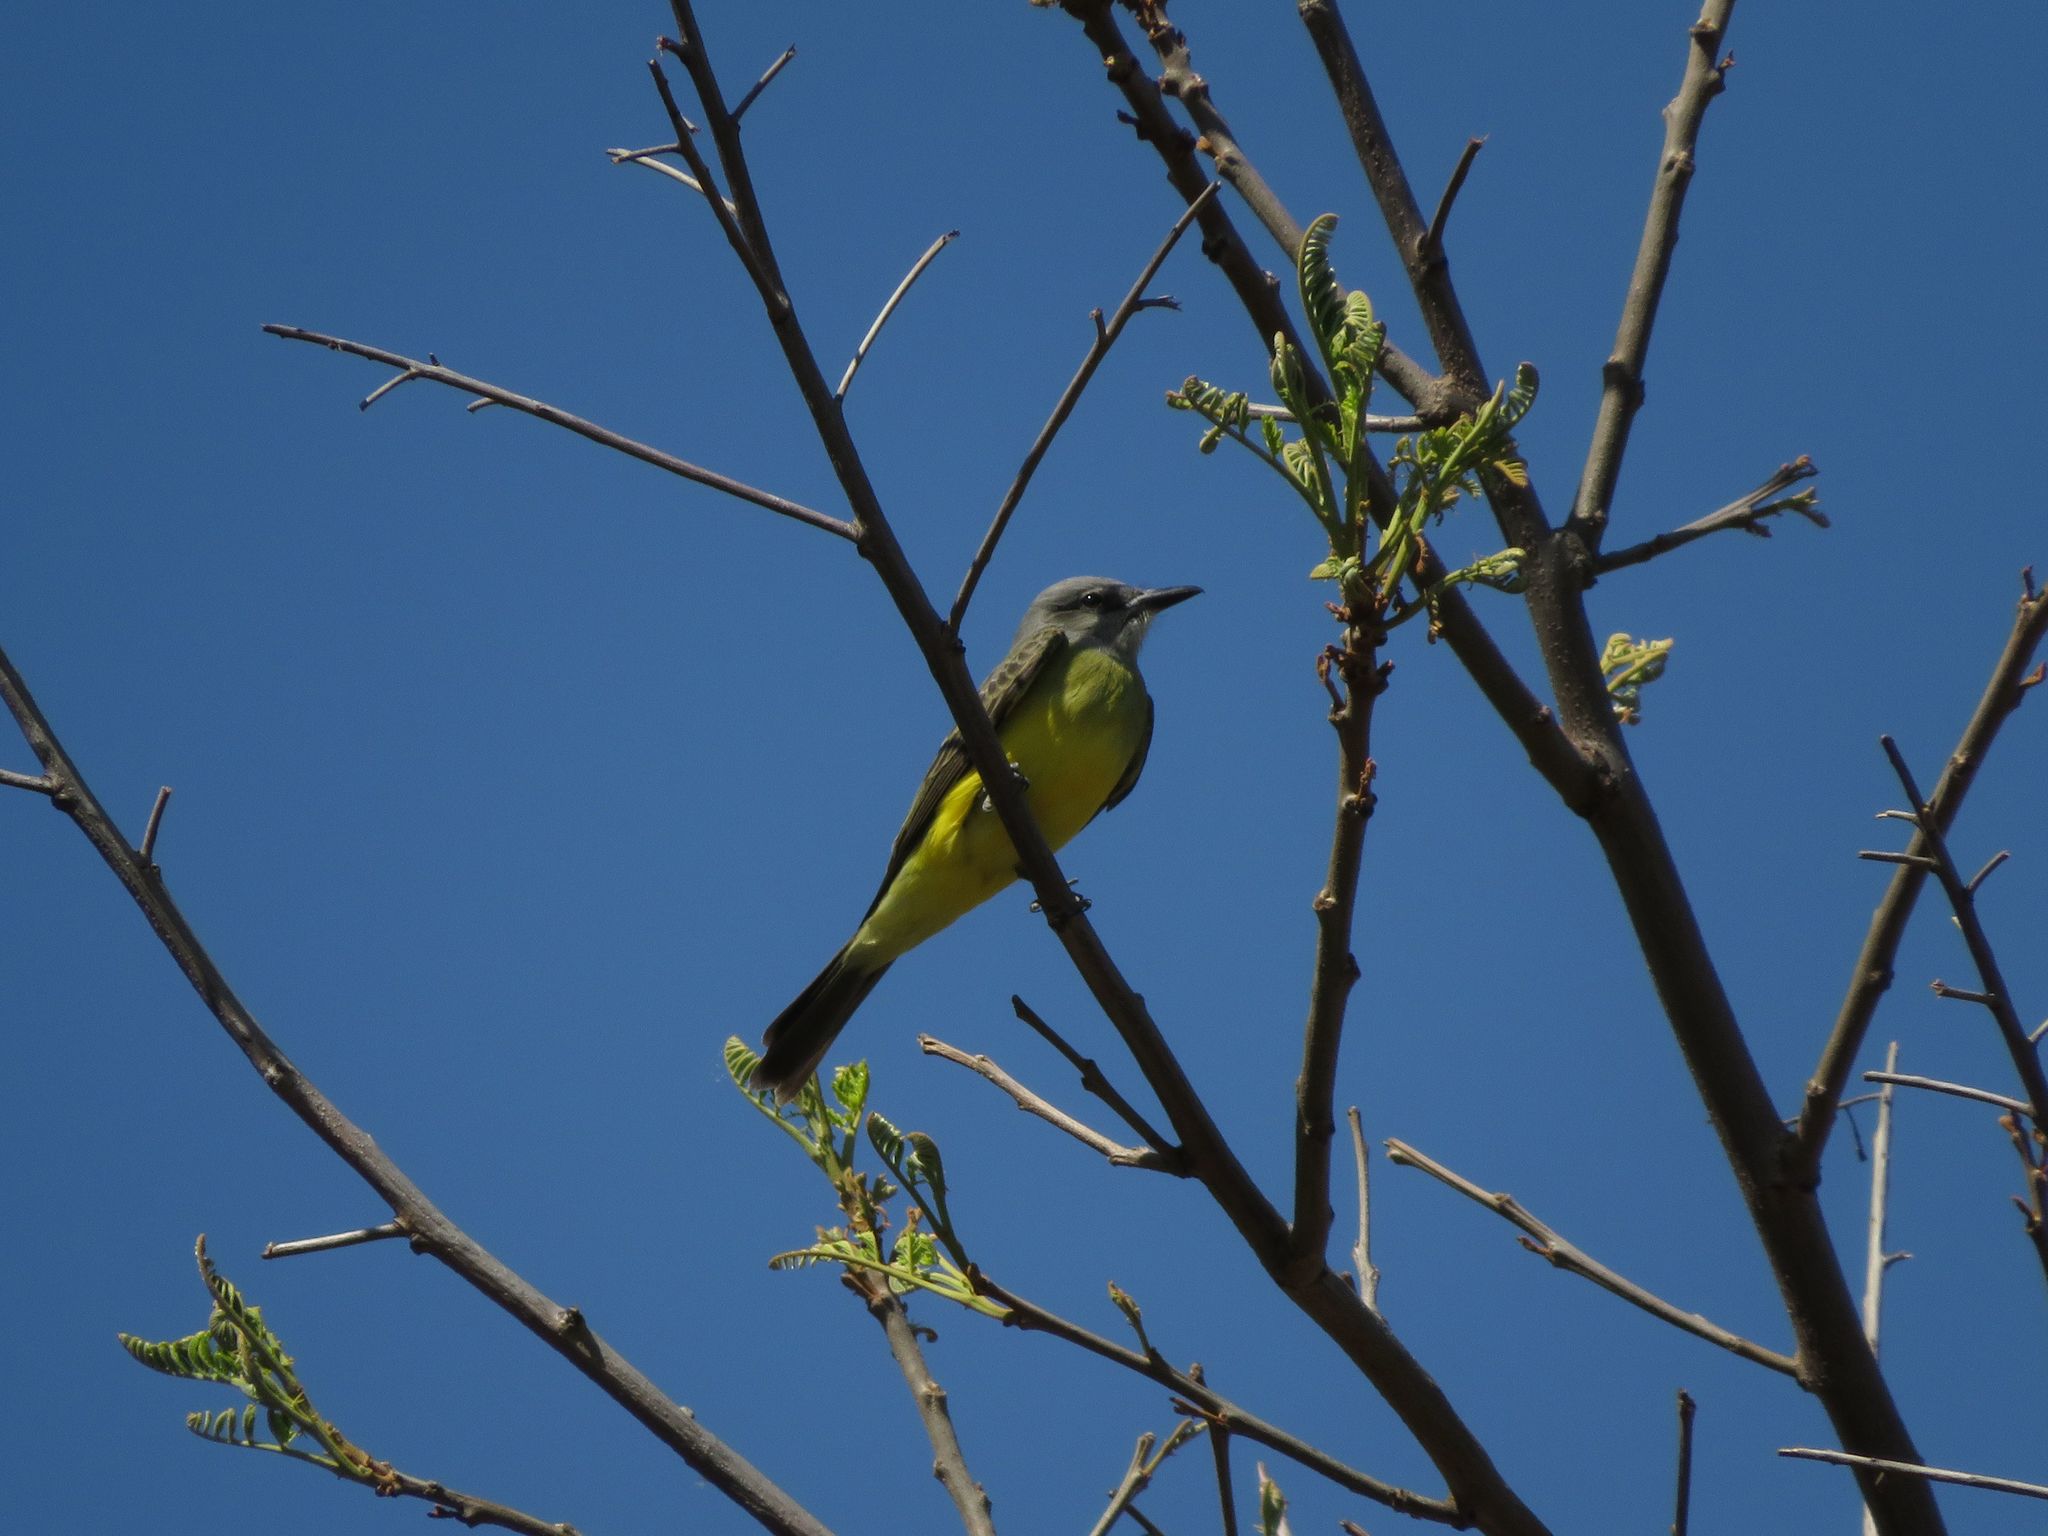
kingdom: Animalia
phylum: Chordata
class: Aves
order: Passeriformes
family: Tyrannidae
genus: Tyrannus
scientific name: Tyrannus melancholicus
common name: Tropical kingbird
